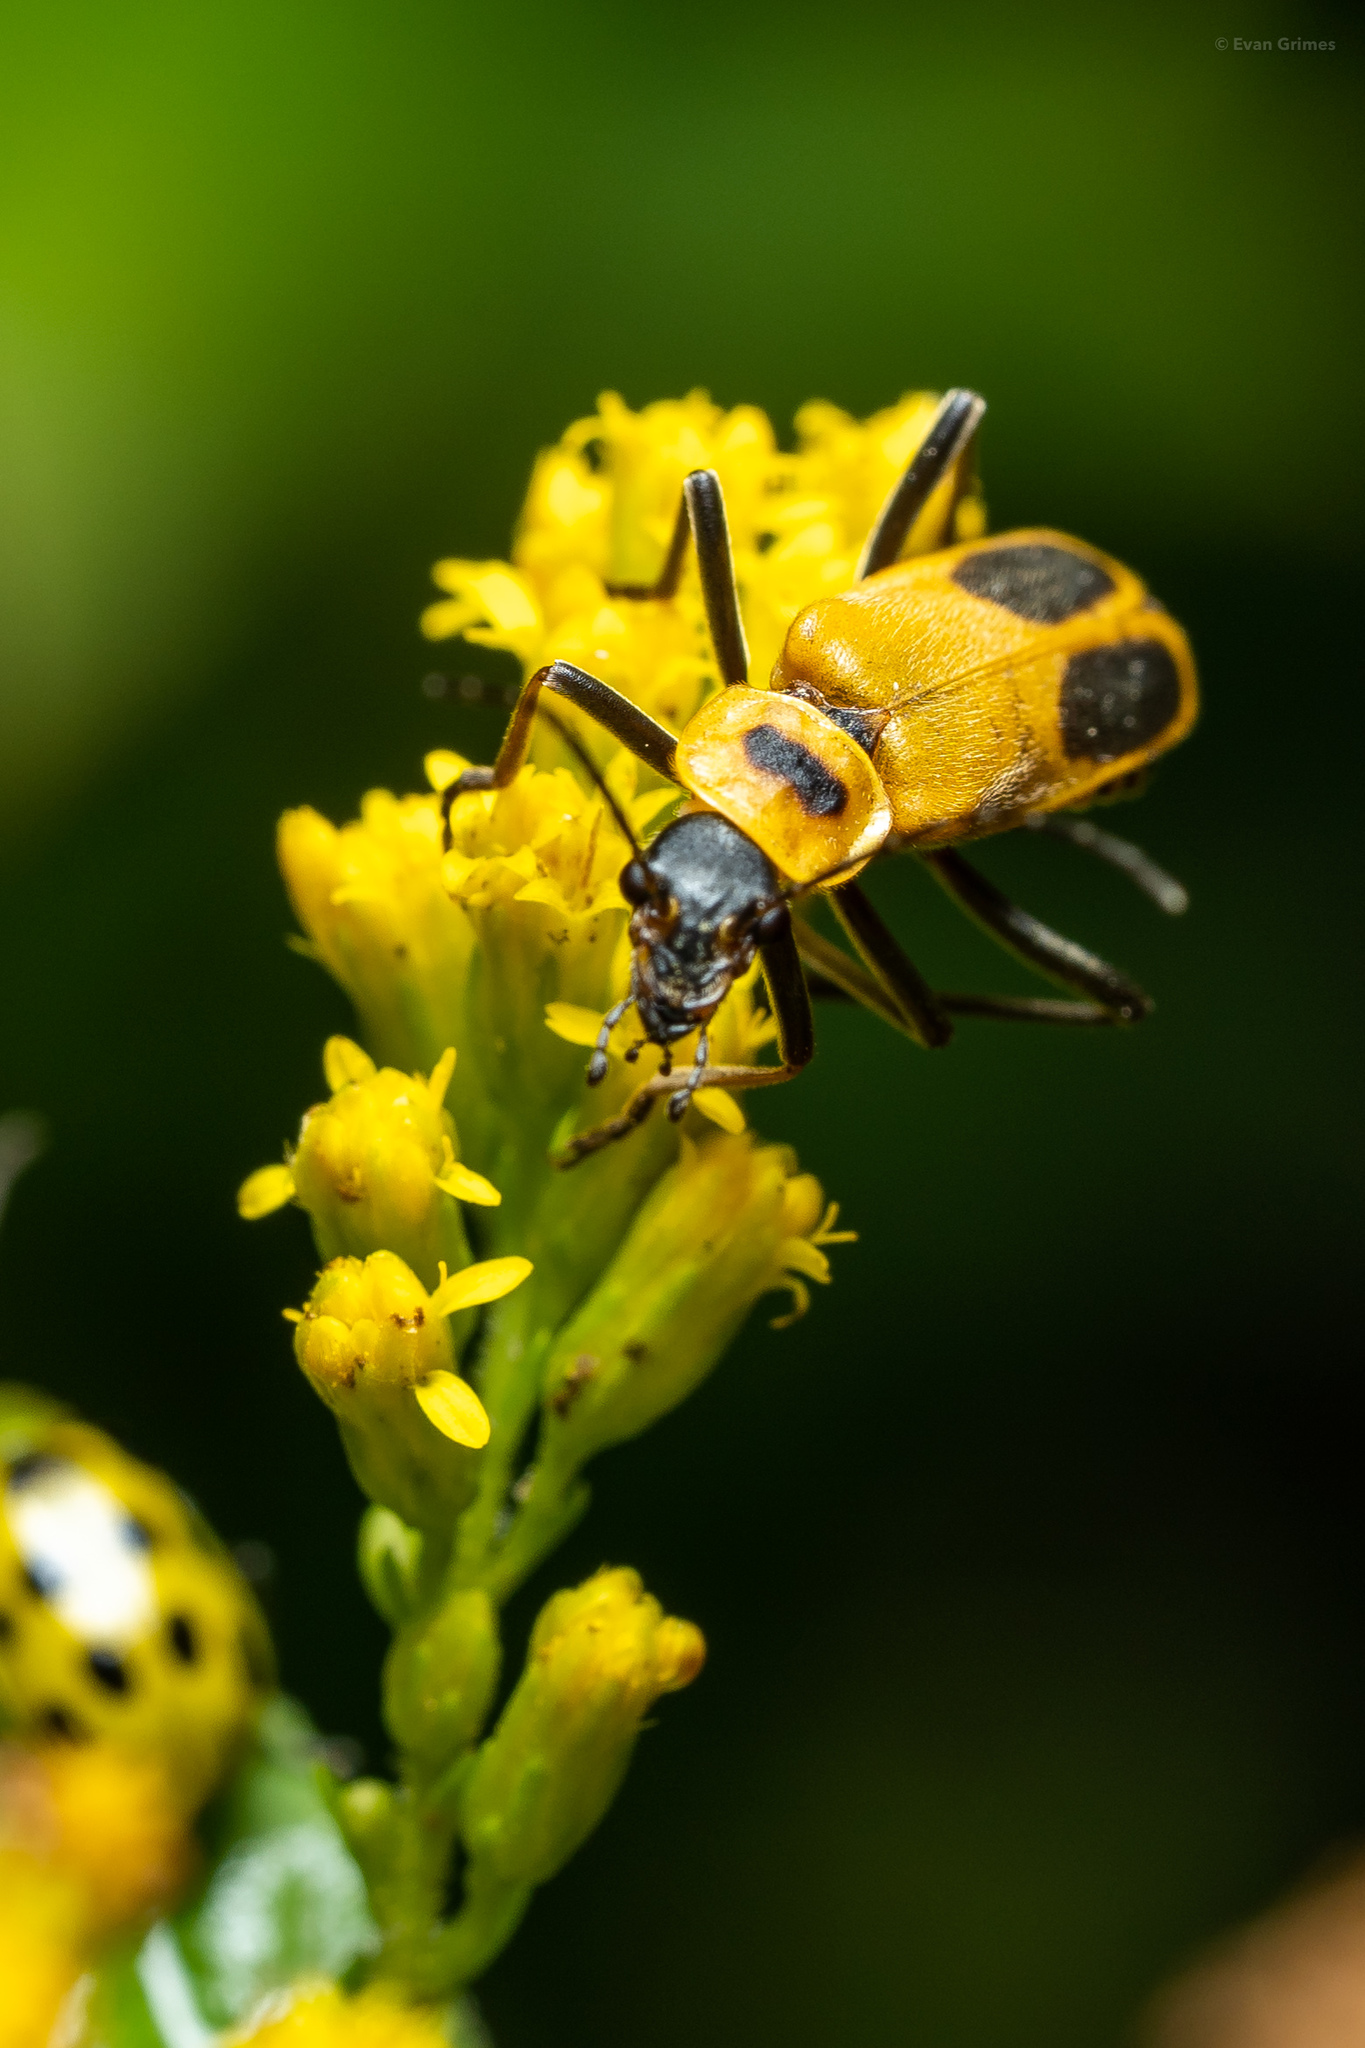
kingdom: Animalia
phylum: Arthropoda
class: Insecta
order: Coleoptera
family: Cantharidae
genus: Chauliognathus
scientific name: Chauliognathus pensylvanicus
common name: Goldenrod soldier beetle
